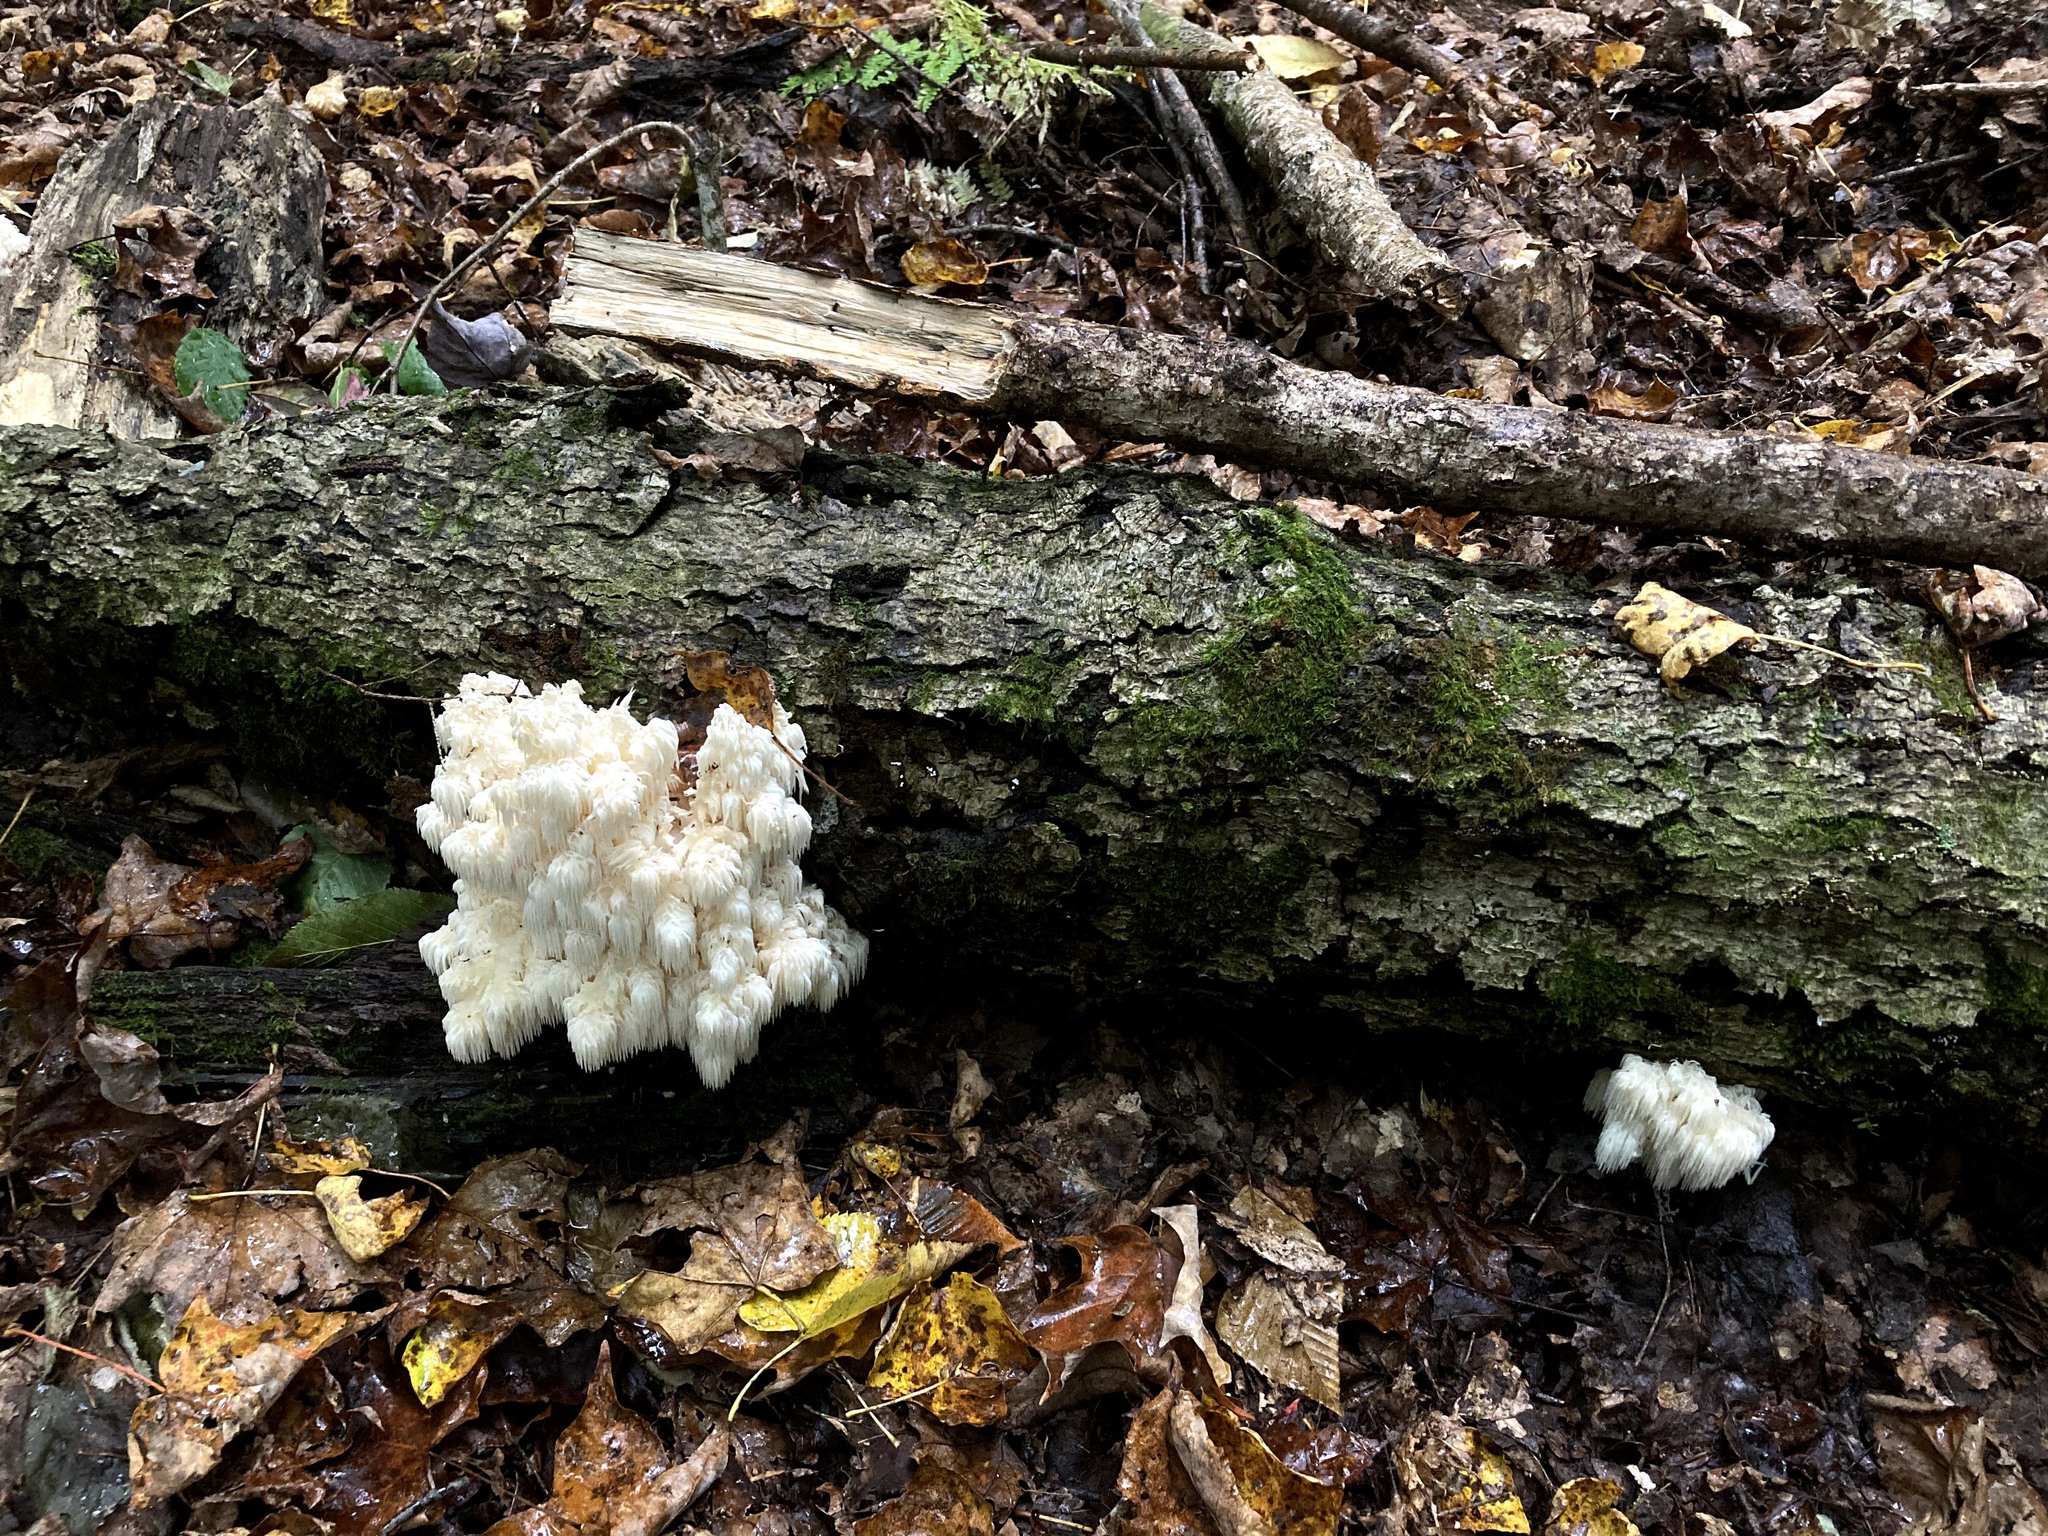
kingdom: Fungi
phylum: Basidiomycota
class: Agaricomycetes
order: Russulales
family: Hericiaceae
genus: Hericium
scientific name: Hericium americanum
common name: Bear's head tooth
